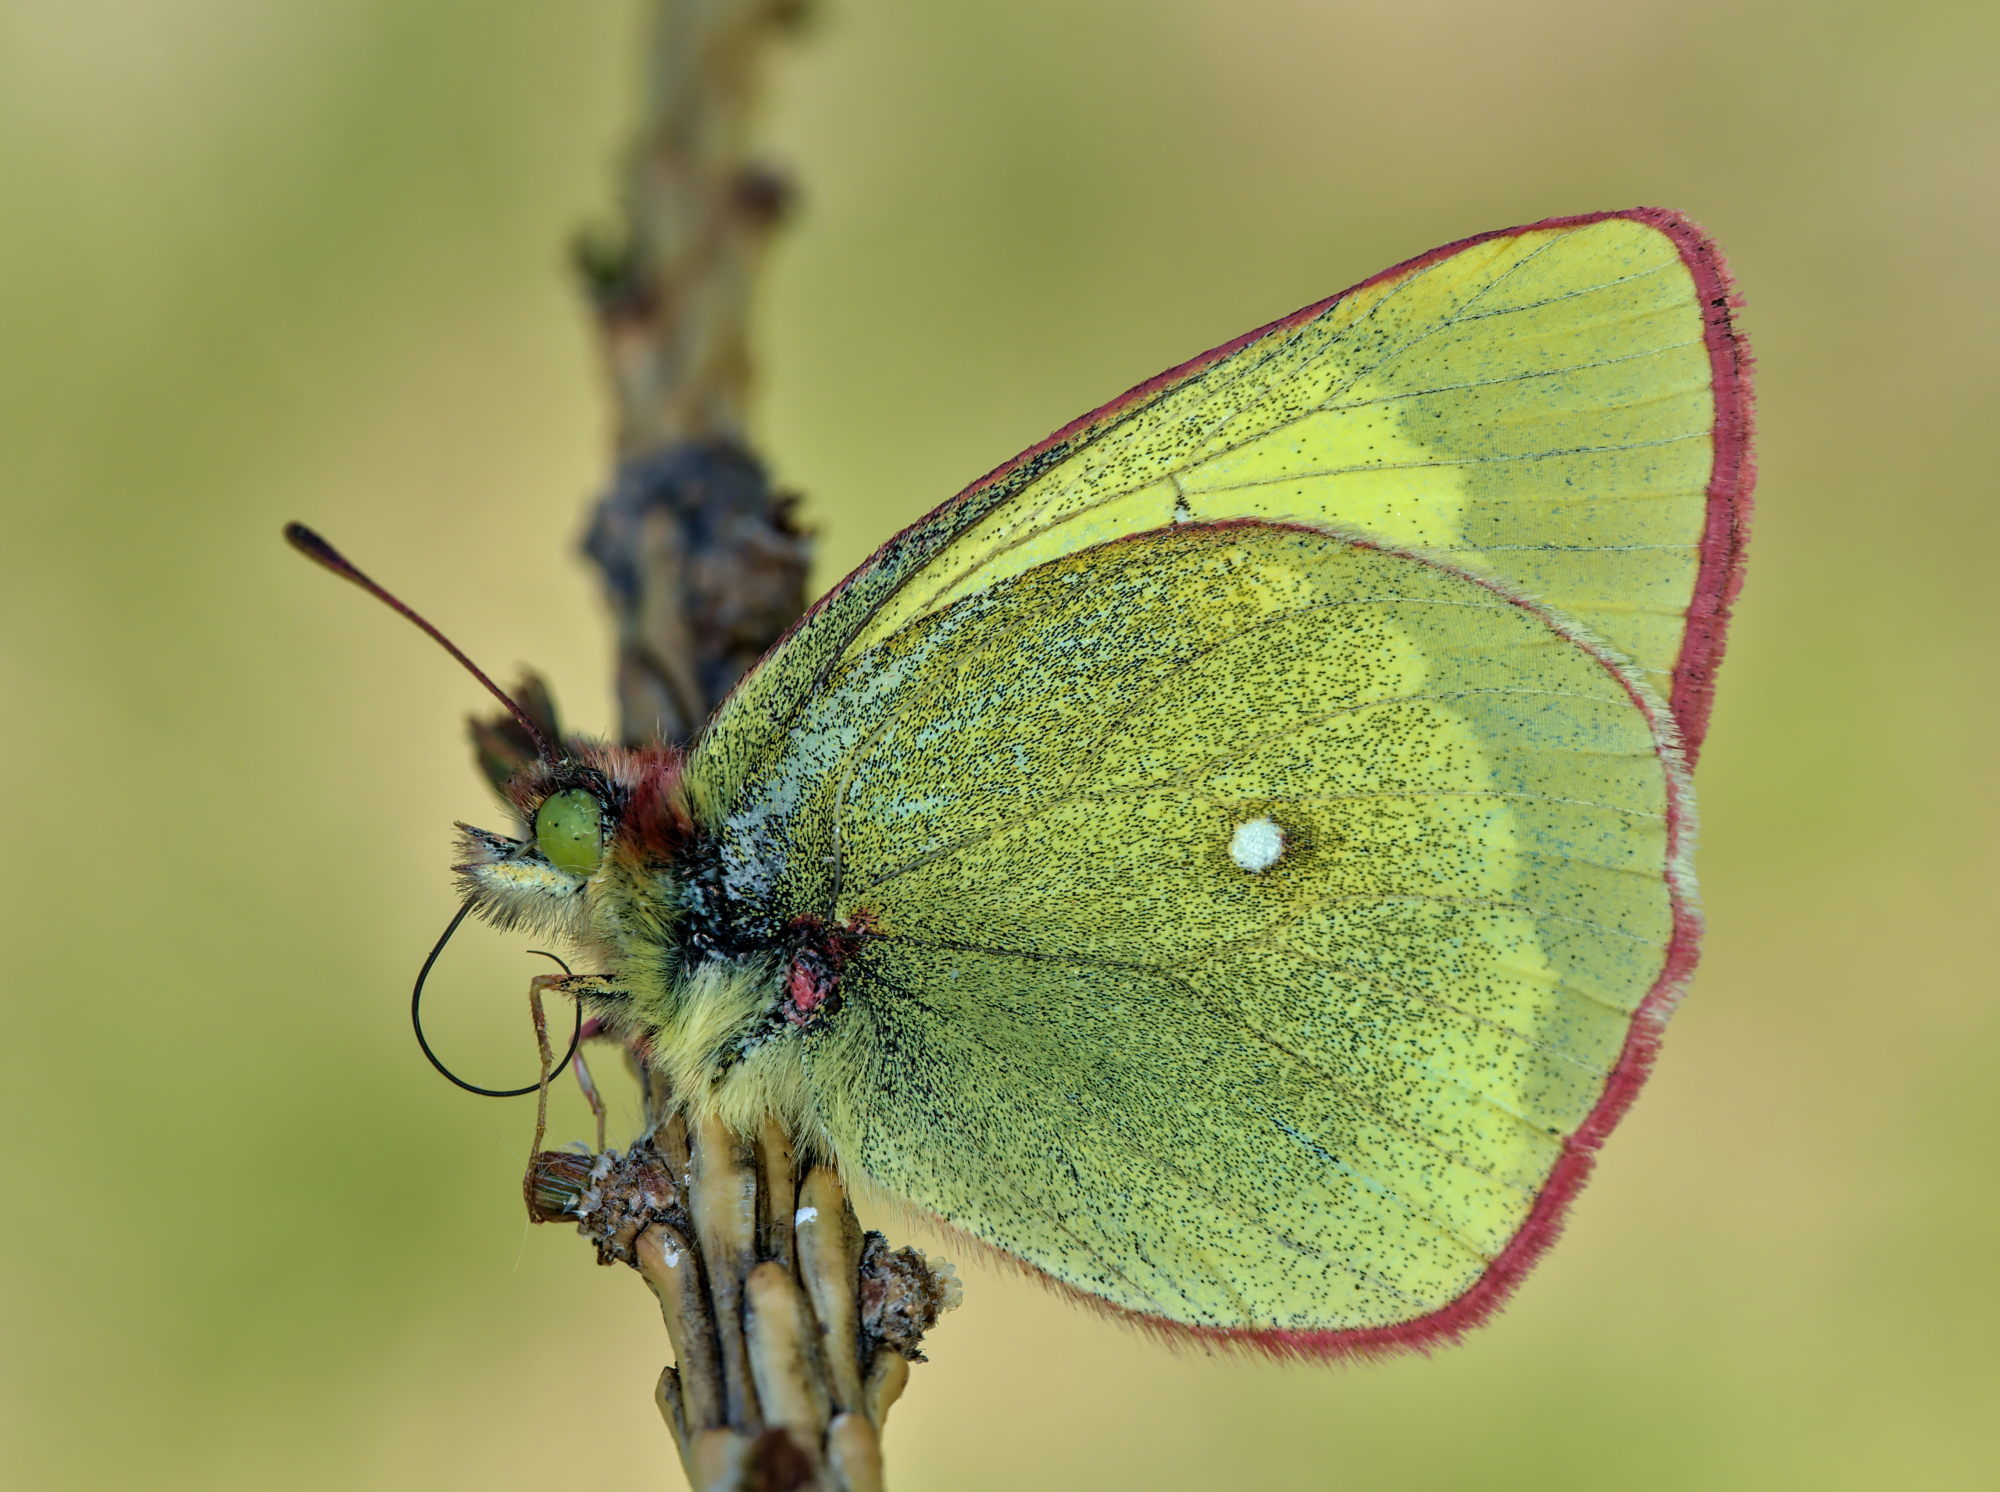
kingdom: Animalia
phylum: Arthropoda
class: Insecta
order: Lepidoptera
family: Pieridae
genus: Colias
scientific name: Colias palaeno
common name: Moorland clouded yellow
